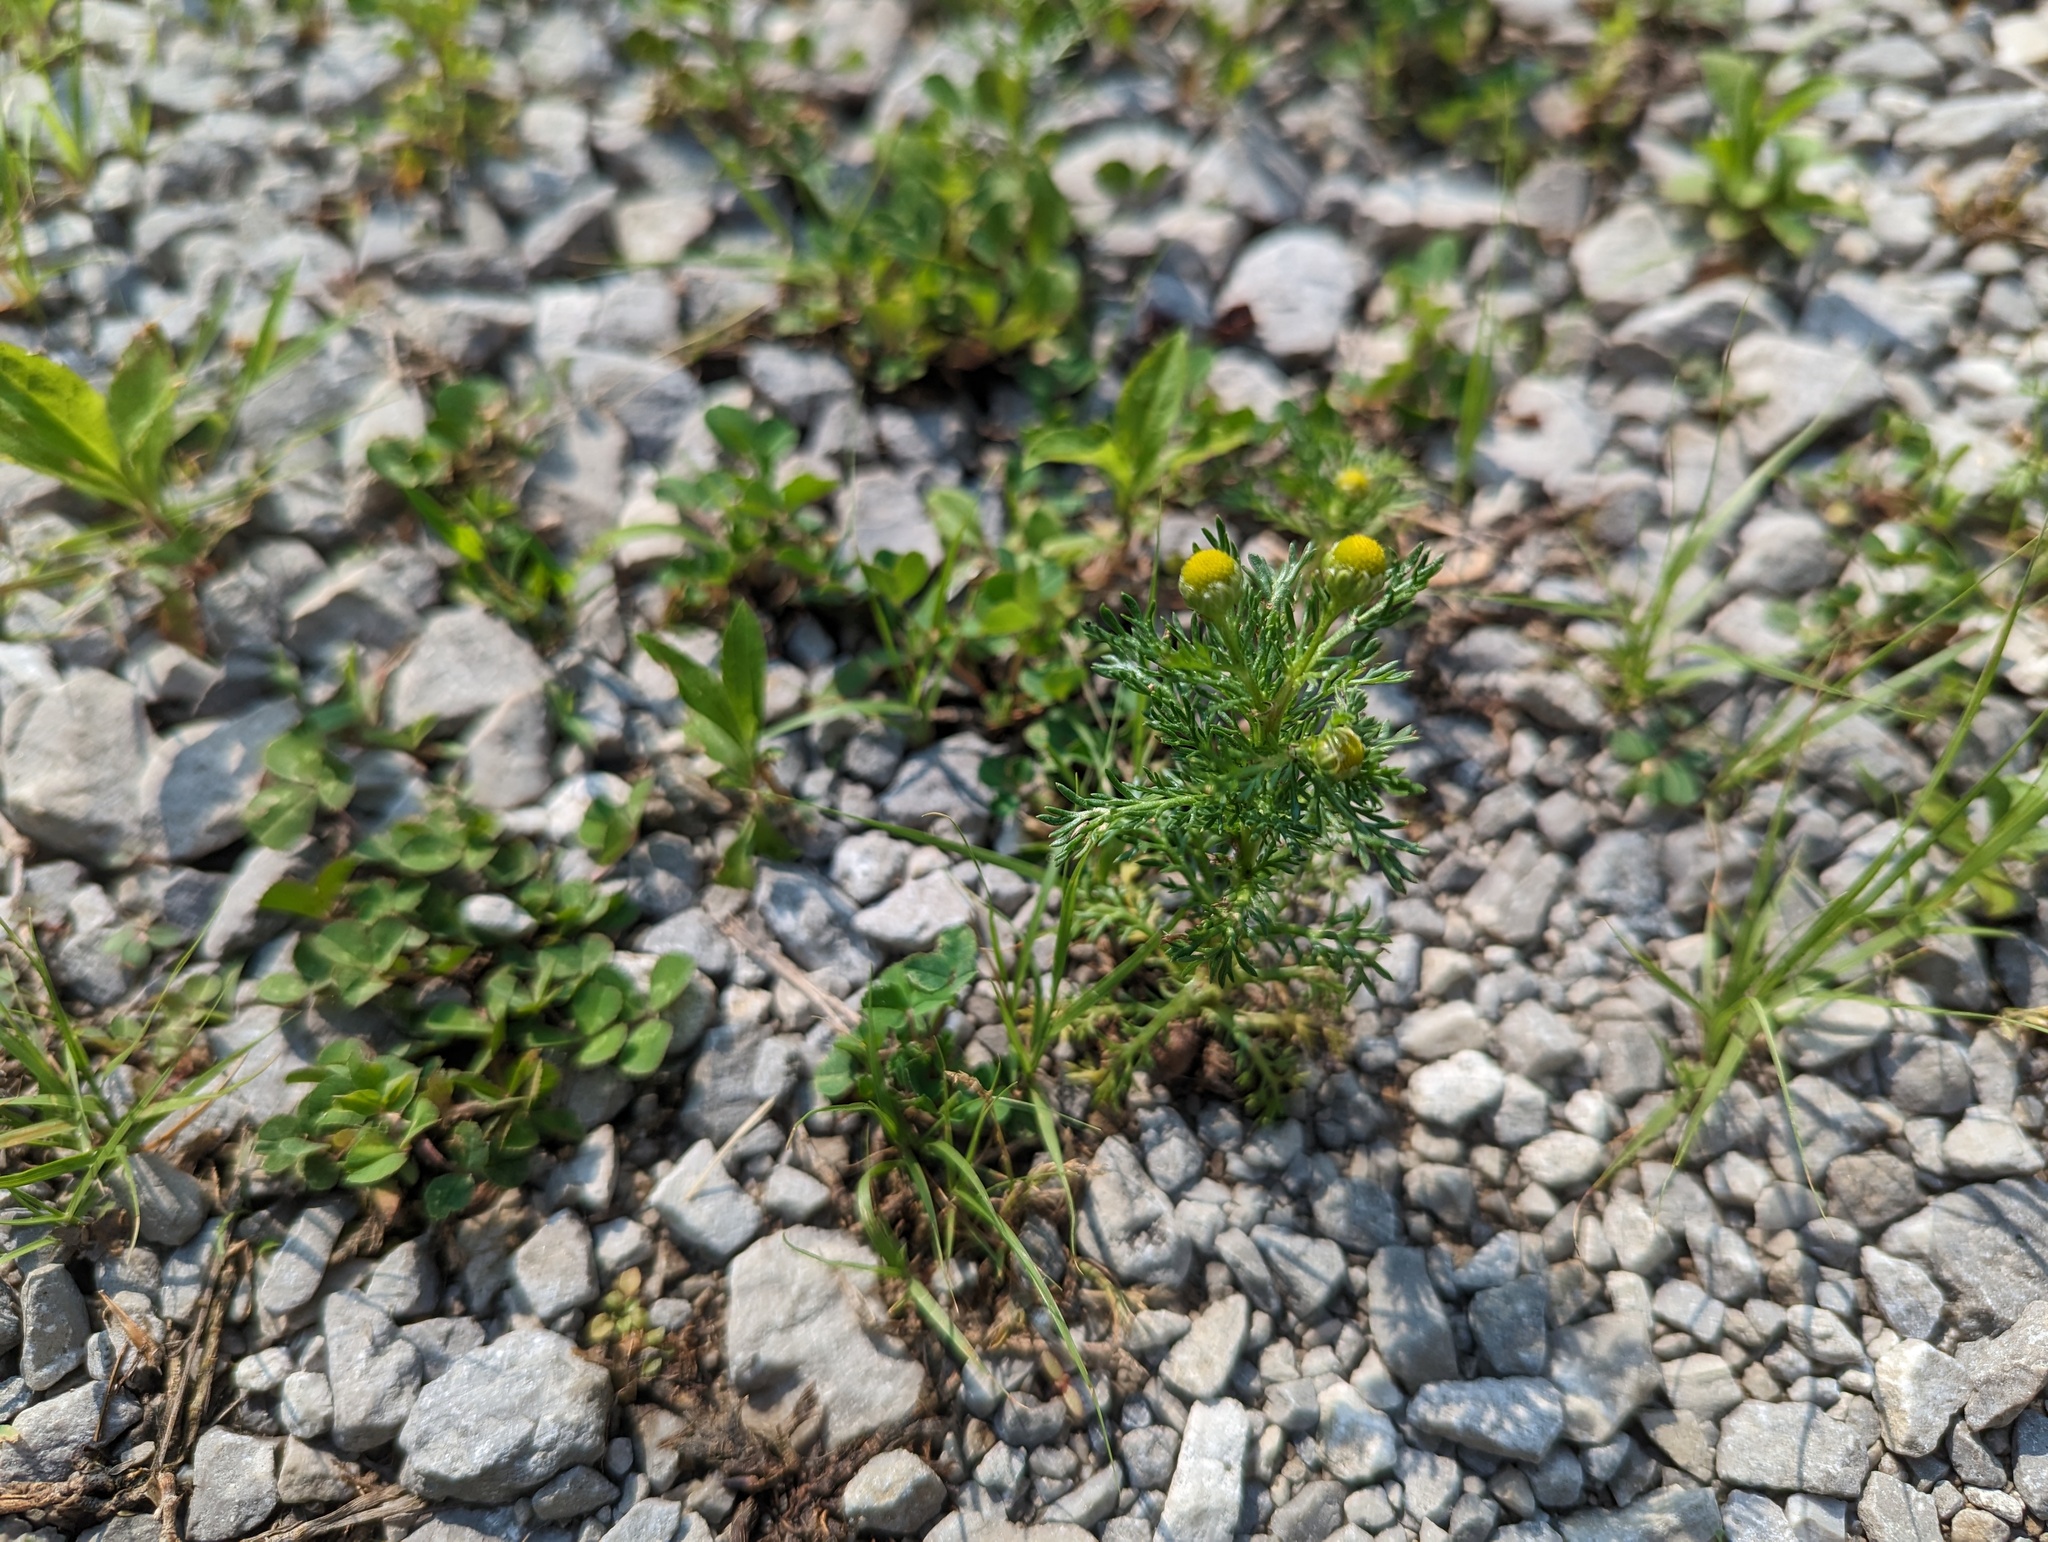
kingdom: Plantae
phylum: Tracheophyta
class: Magnoliopsida
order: Asterales
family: Asteraceae
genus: Matricaria
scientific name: Matricaria discoidea
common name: Disc mayweed
